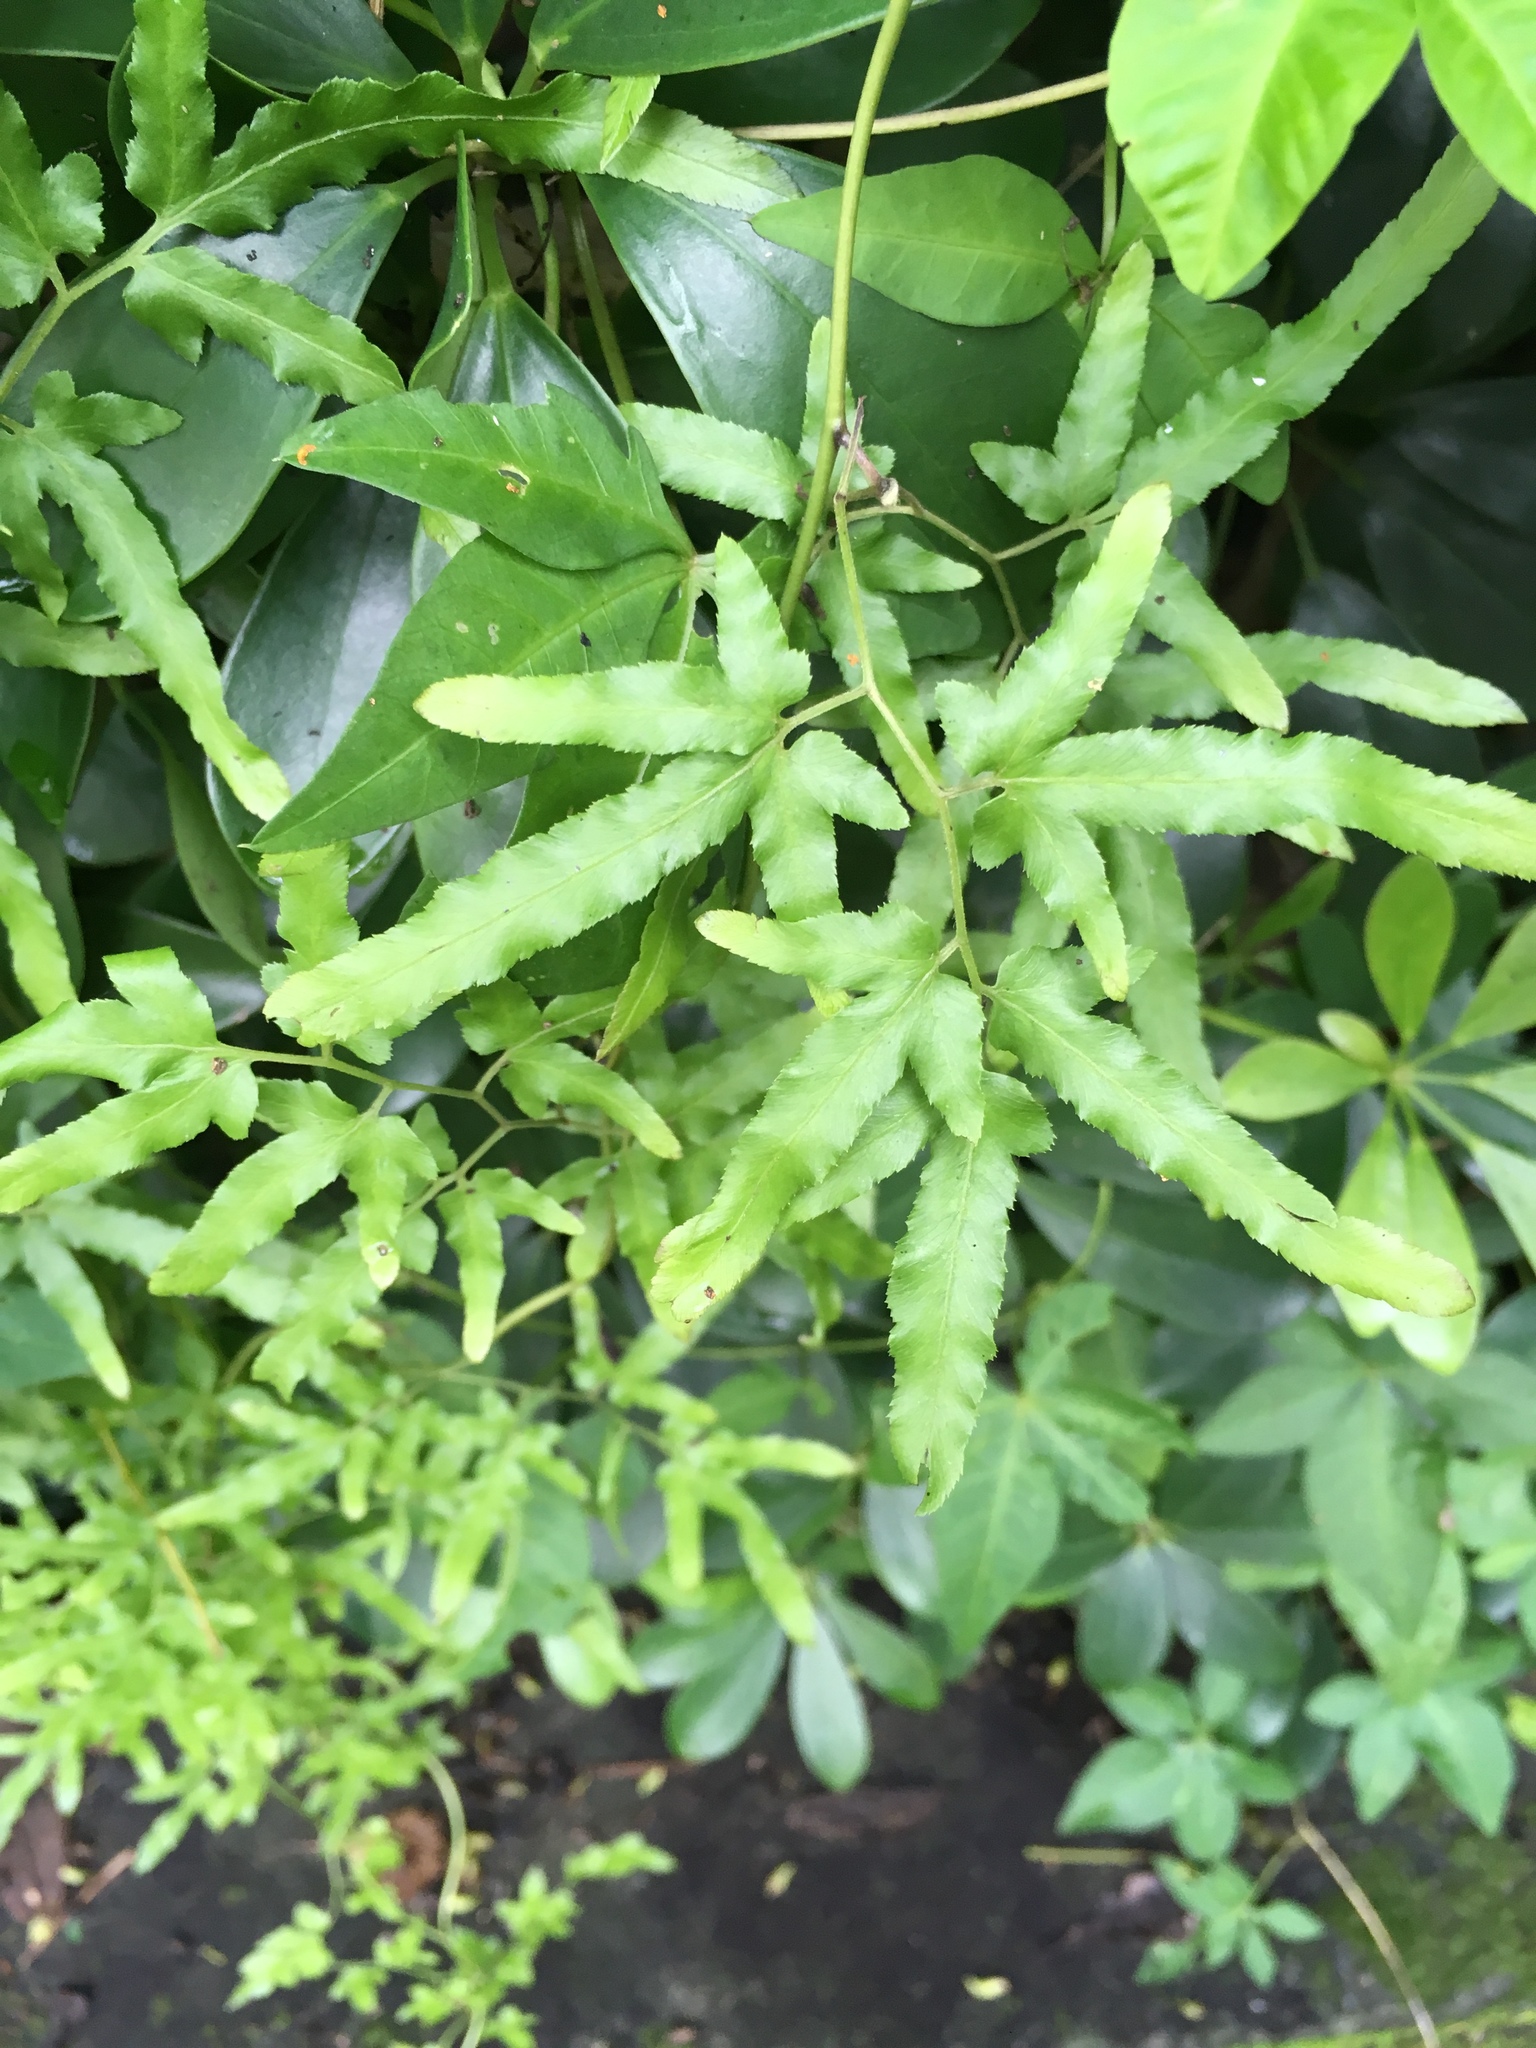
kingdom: Plantae
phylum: Tracheophyta
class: Polypodiopsida
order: Schizaeales
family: Lygodiaceae
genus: Lygodium
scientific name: Lygodium japonicum
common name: Japanese climbing fern
